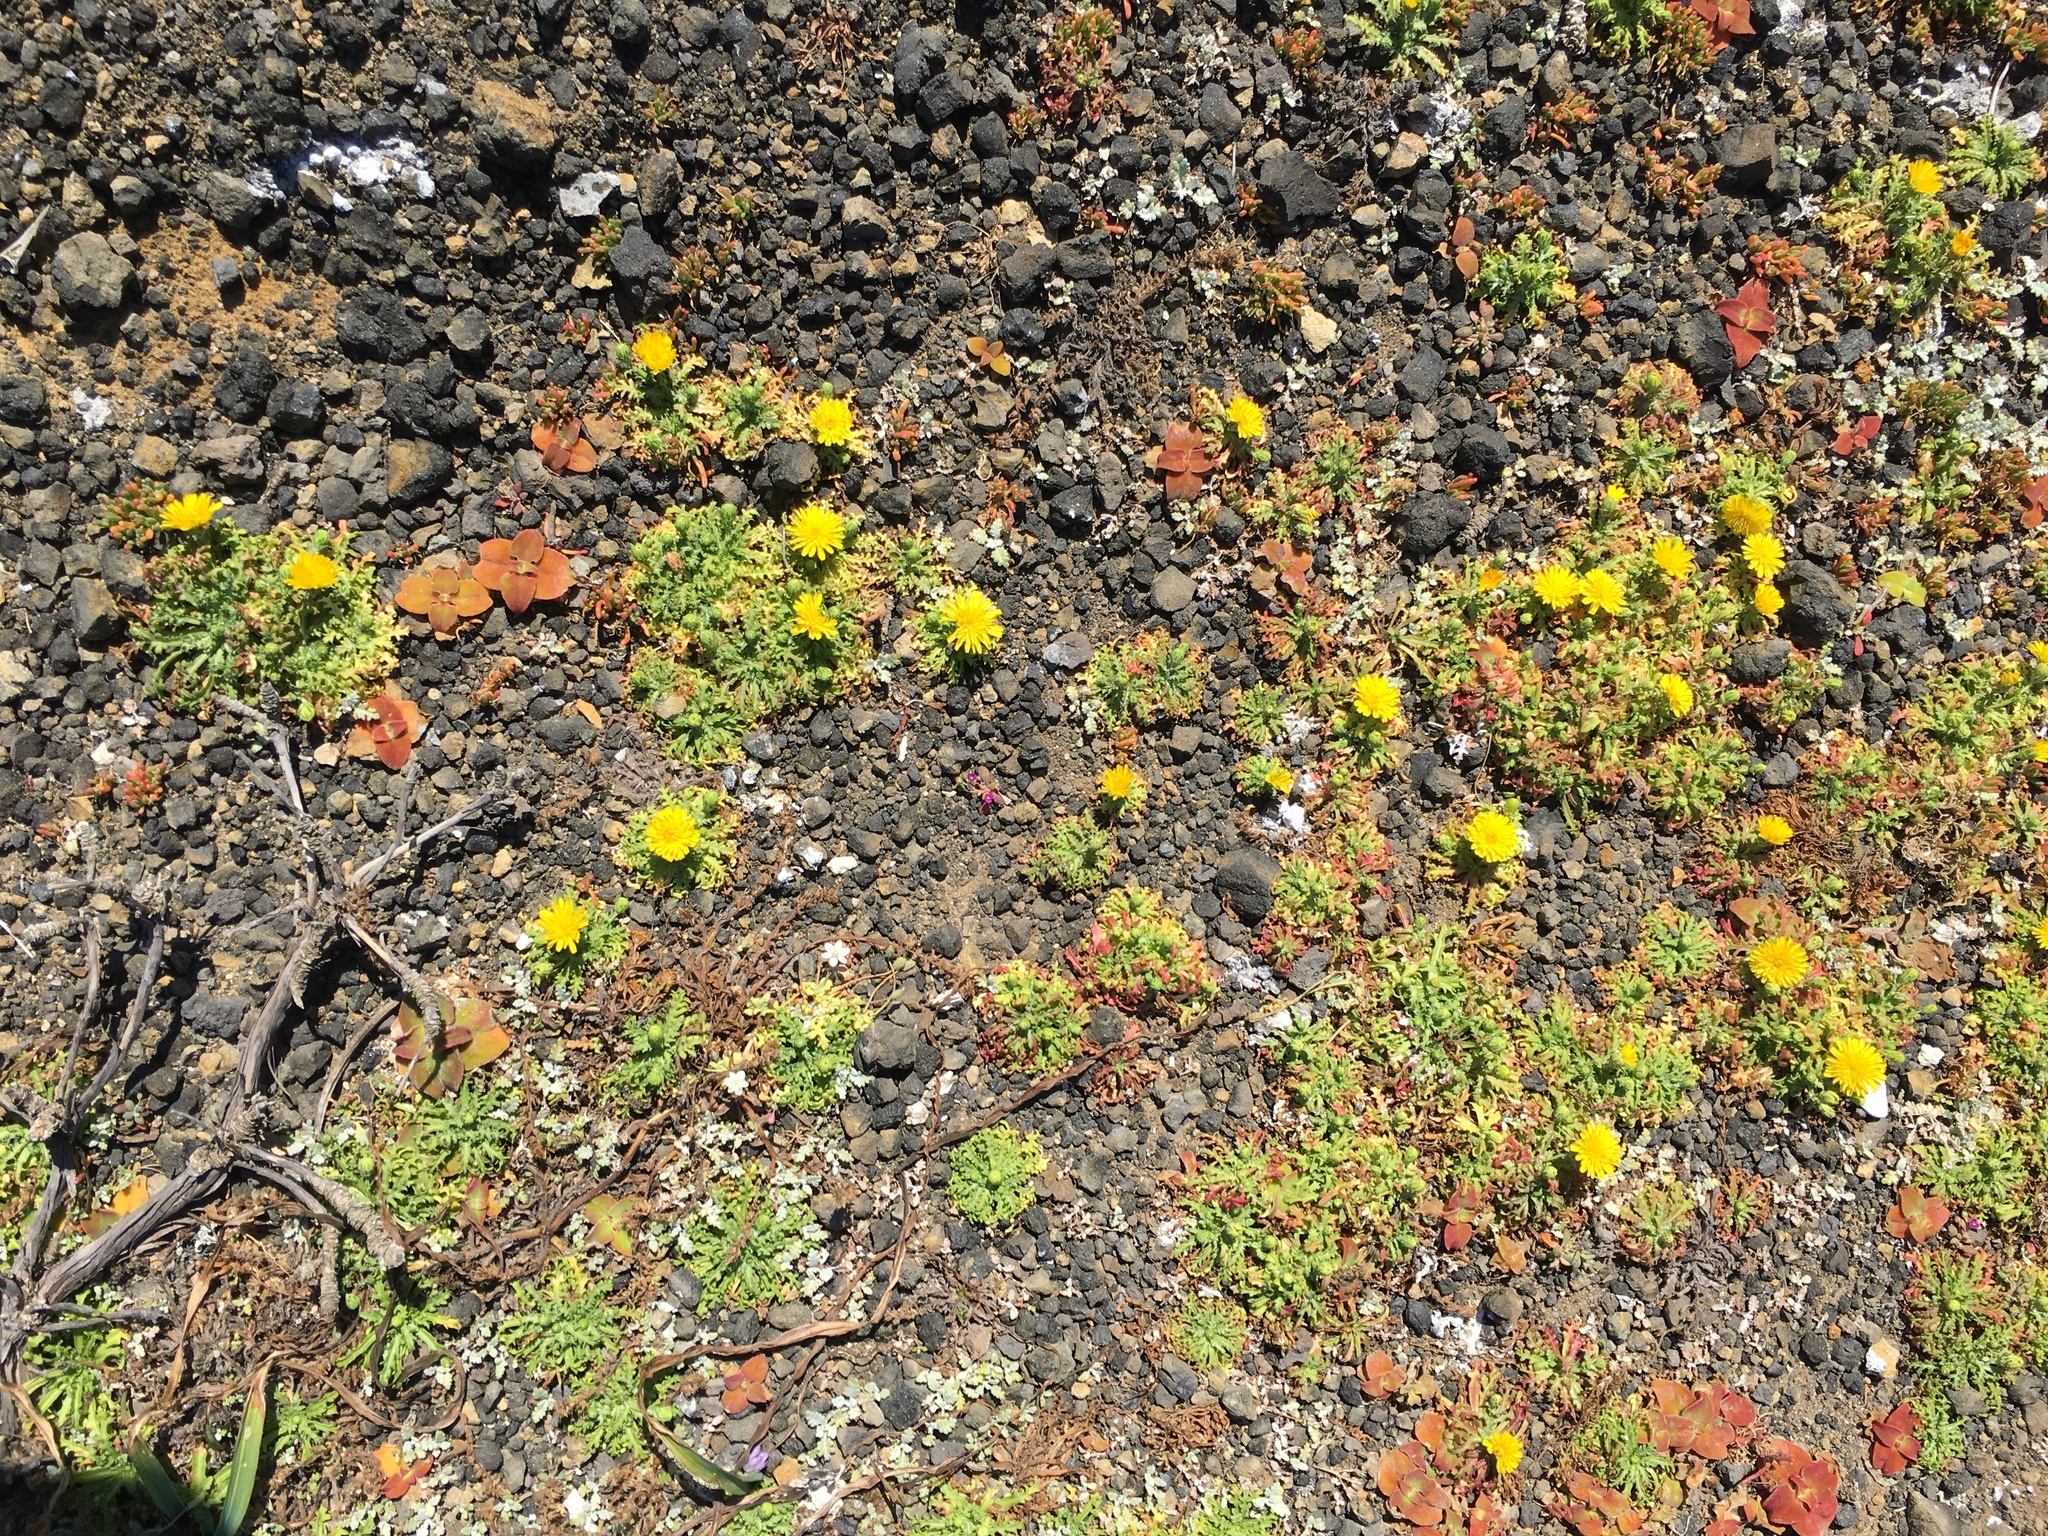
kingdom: Plantae
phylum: Tracheophyta
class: Magnoliopsida
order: Asterales
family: Asteraceae
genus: Malacothrix
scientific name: Malacothrix foliosa
